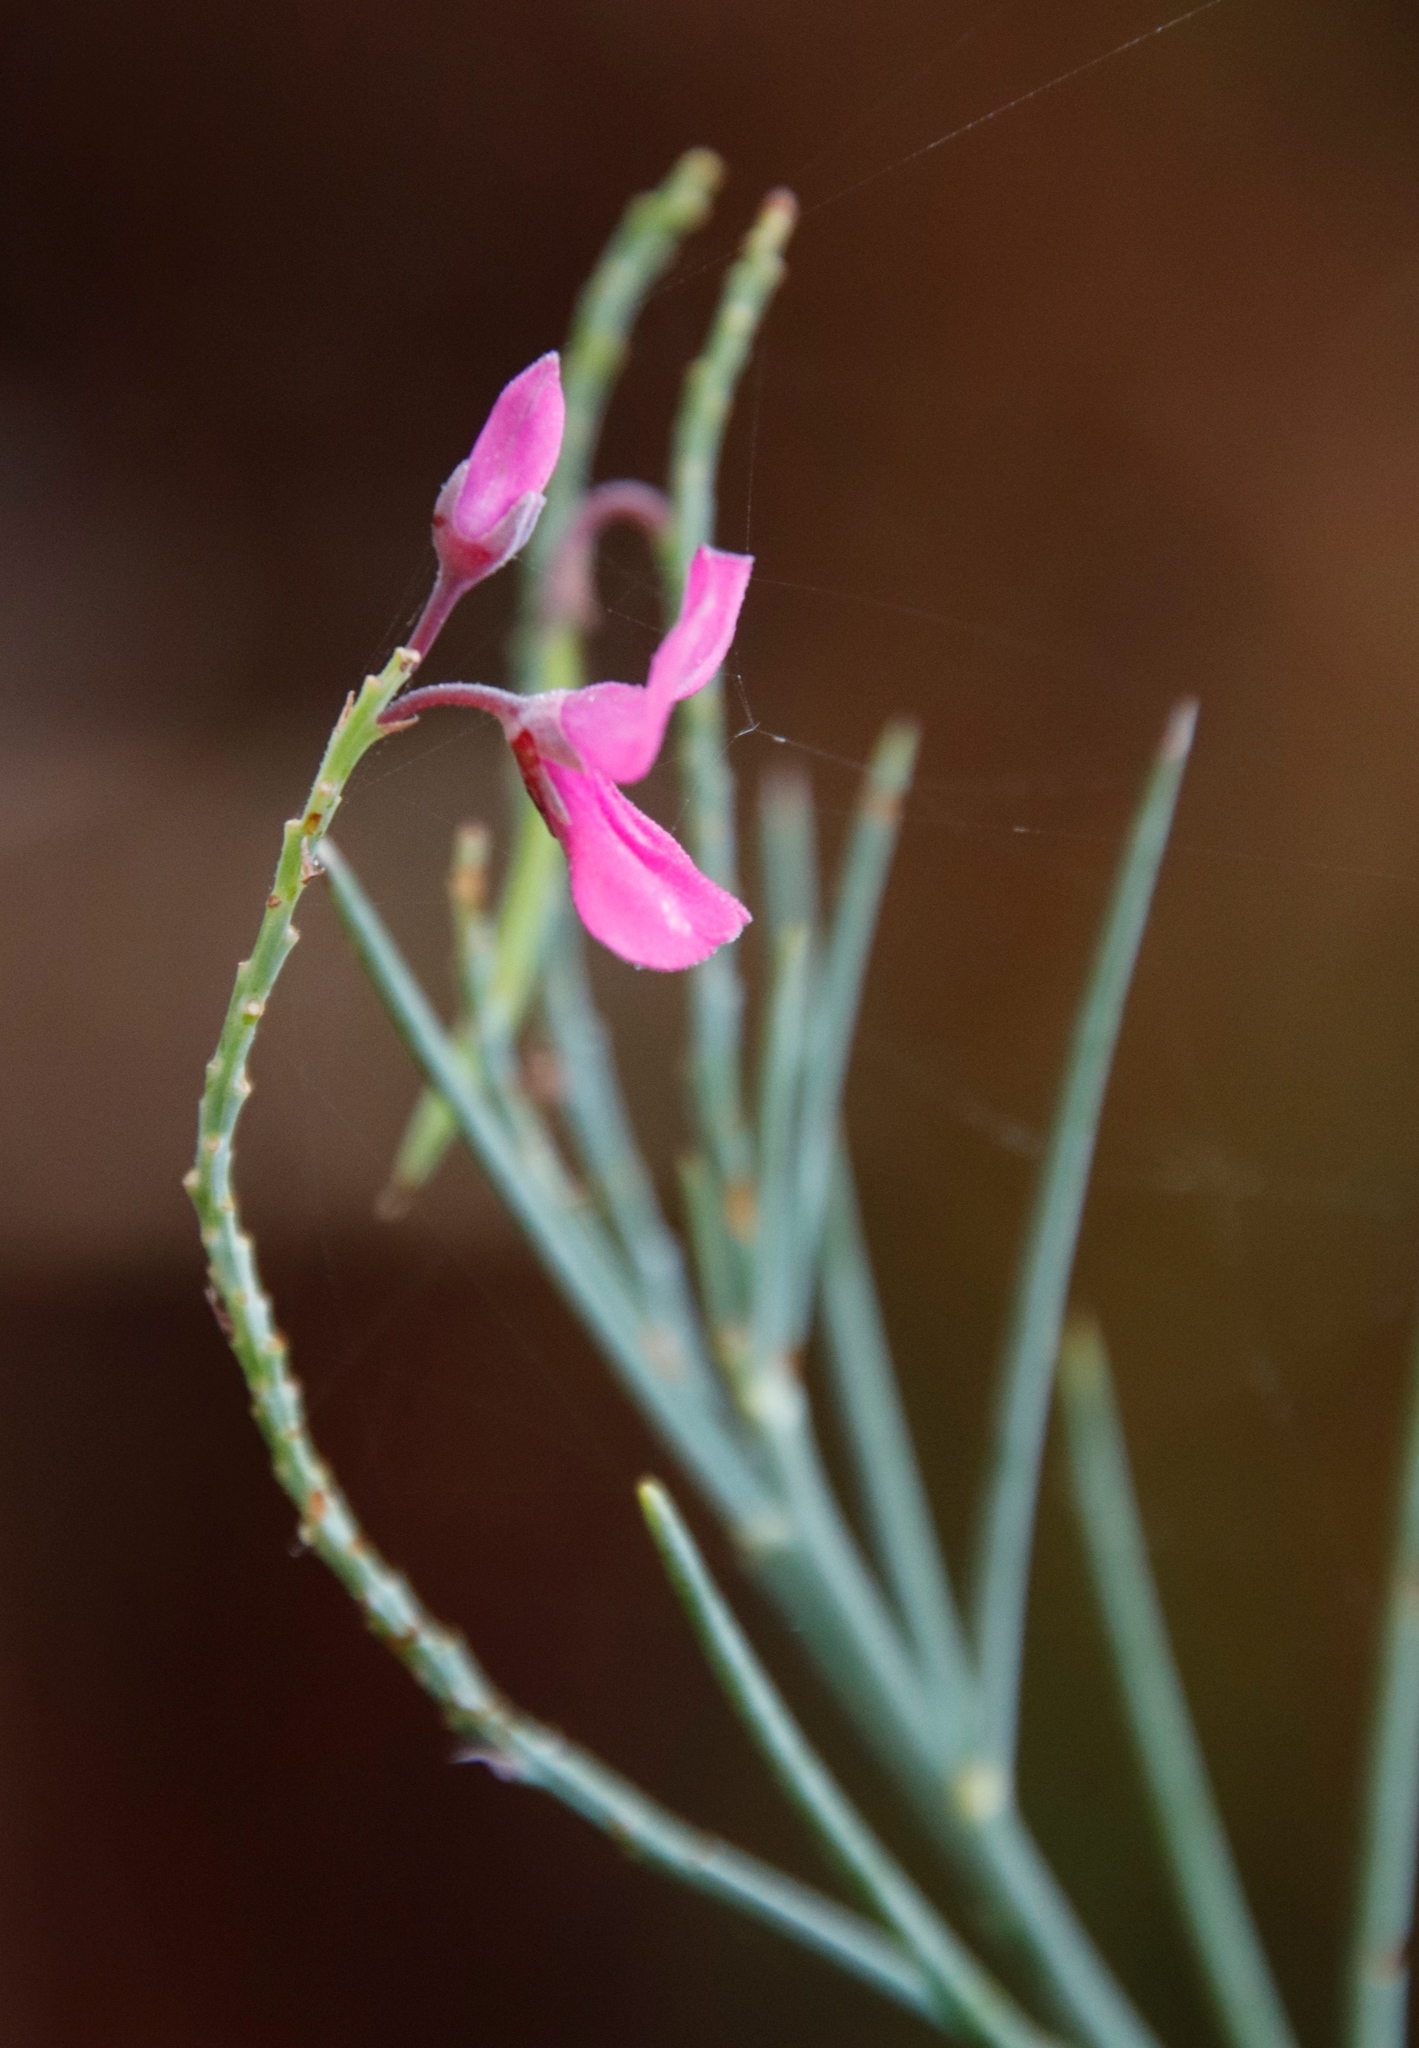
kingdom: Plantae
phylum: Tracheophyta
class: Magnoliopsida
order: Fabales
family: Fabaceae
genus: Indigofera
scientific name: Indigofera filifolia
